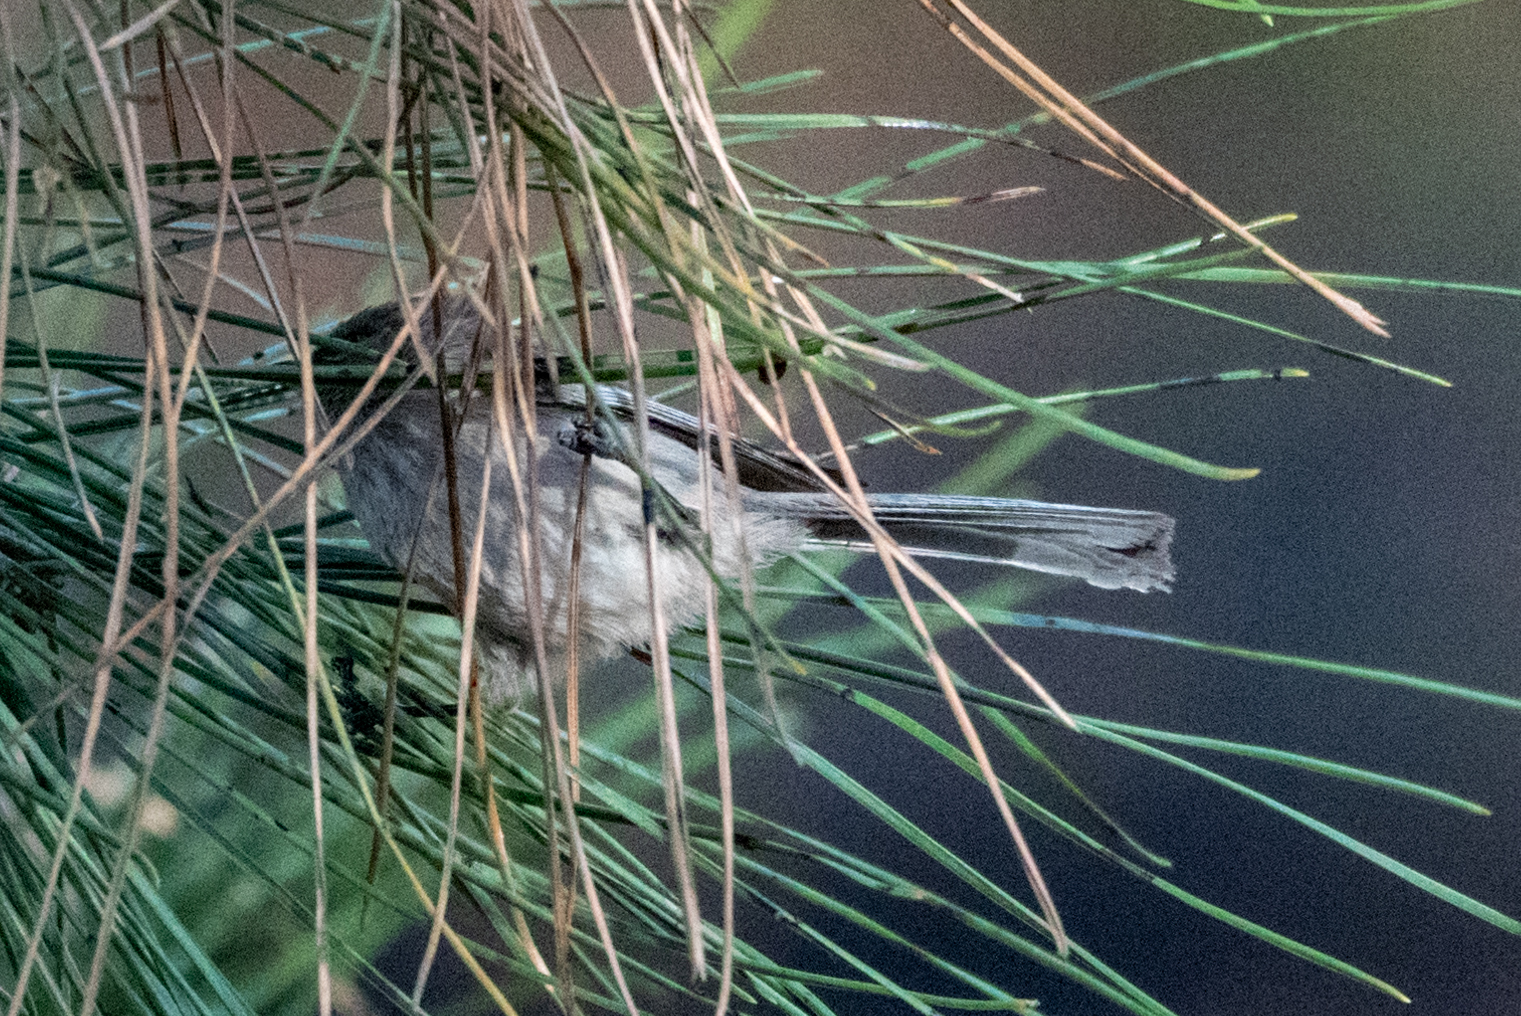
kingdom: Animalia
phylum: Chordata
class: Aves
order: Passeriformes
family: Aegithalidae
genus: Psaltriparus
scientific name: Psaltriparus minimus
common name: American bushtit
